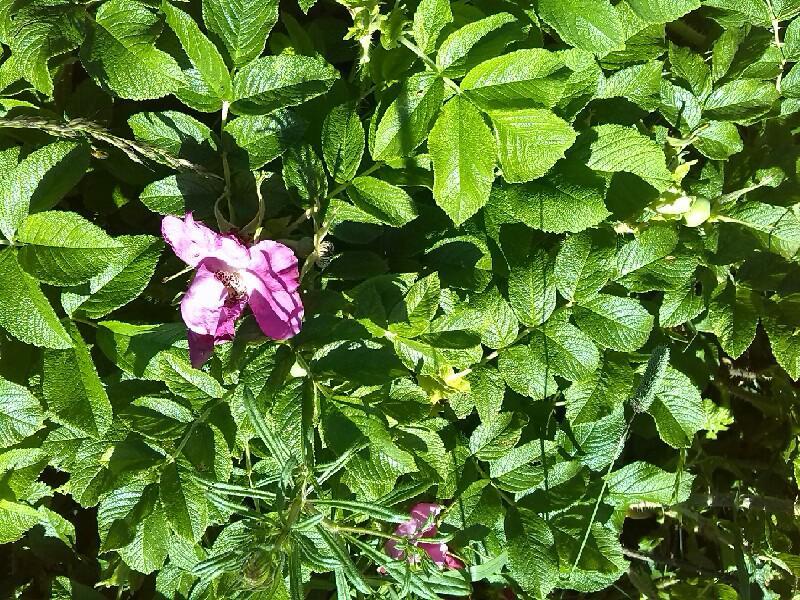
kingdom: Plantae
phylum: Tracheophyta
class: Magnoliopsida
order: Rosales
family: Rosaceae
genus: Rosa
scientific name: Rosa rugosa
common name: Japanese rose
